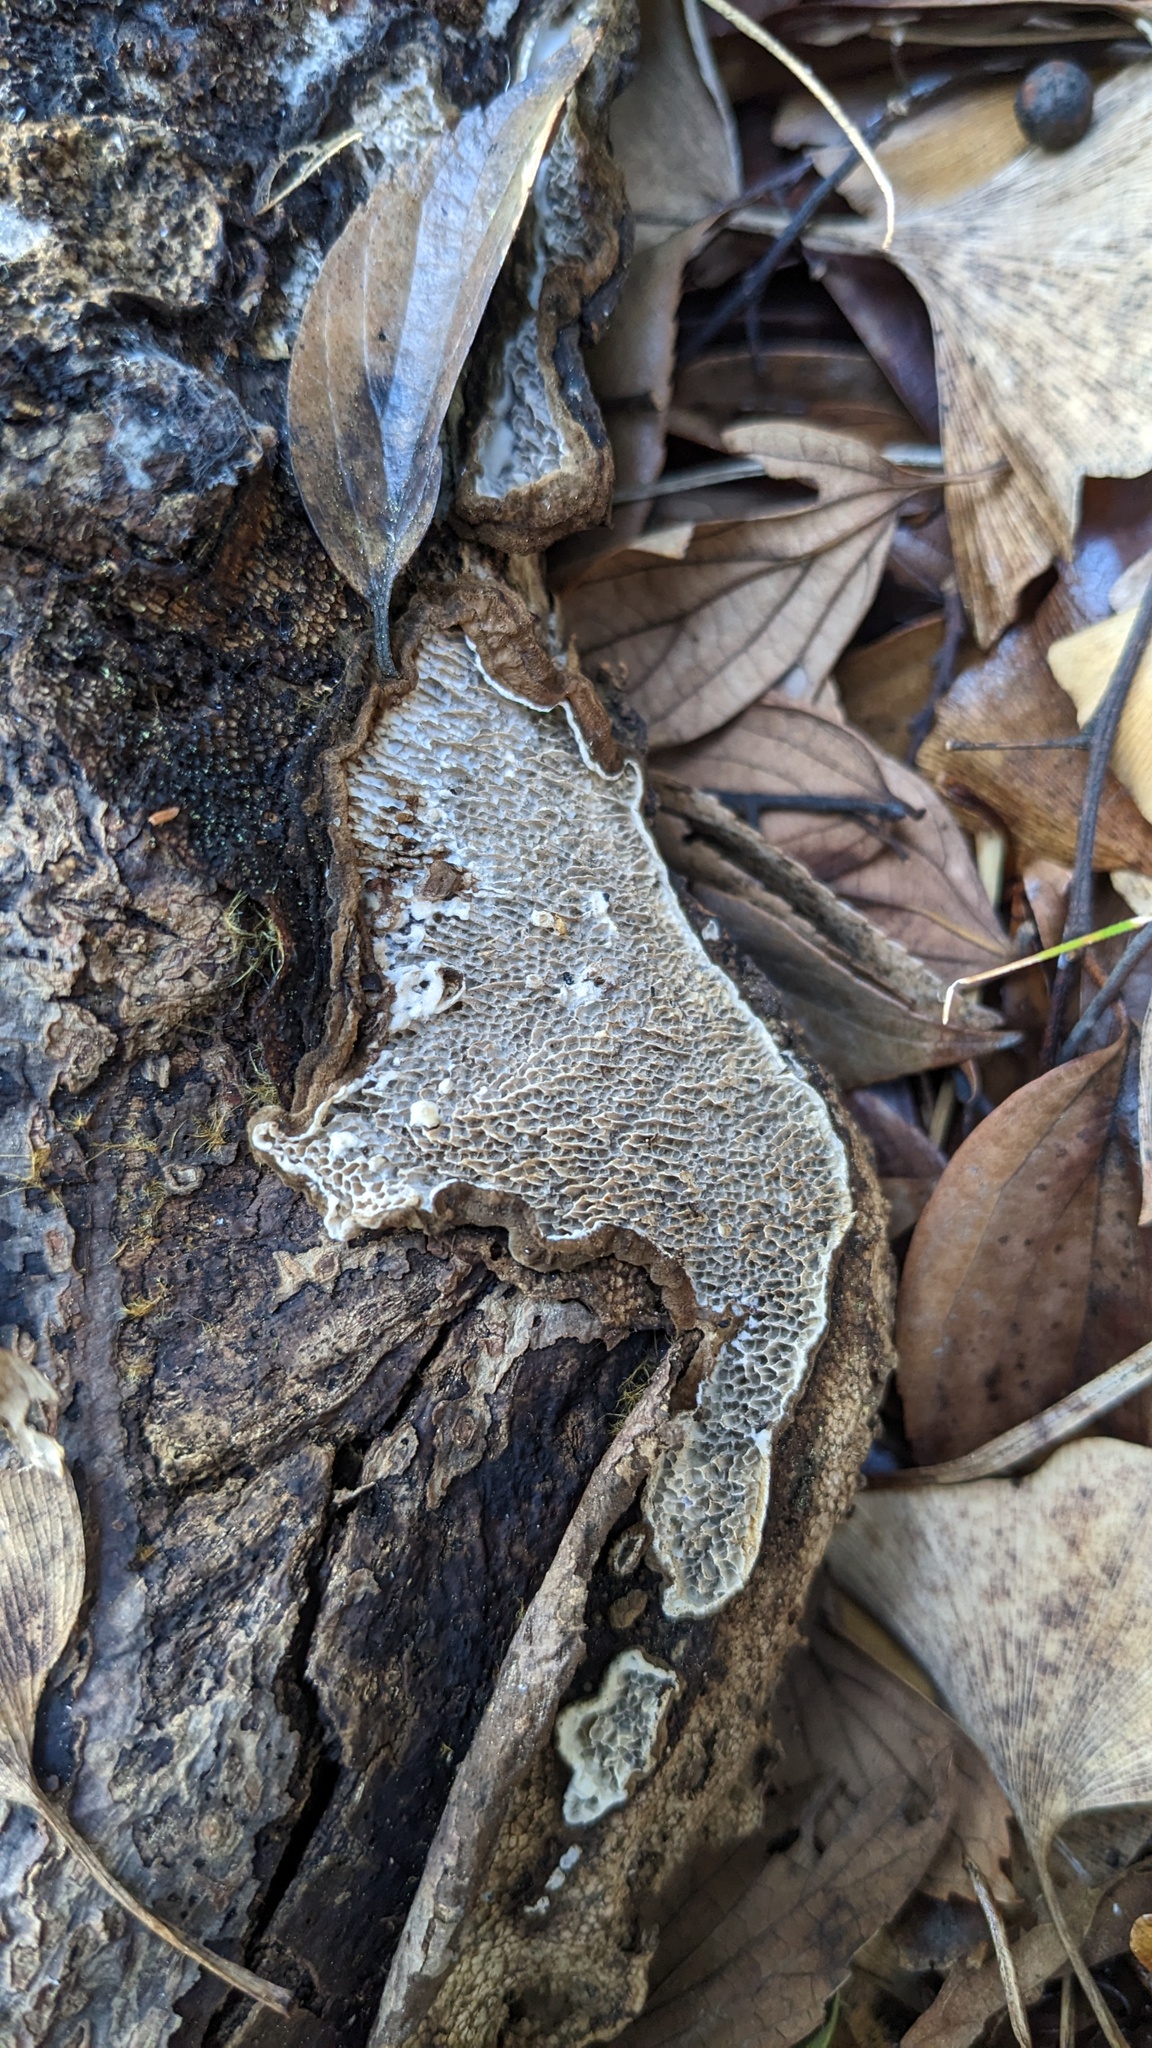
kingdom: Fungi
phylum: Basidiomycota
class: Agaricomycetes
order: Polyporales
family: Polyporaceae
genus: Podofomes
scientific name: Podofomes mollis
